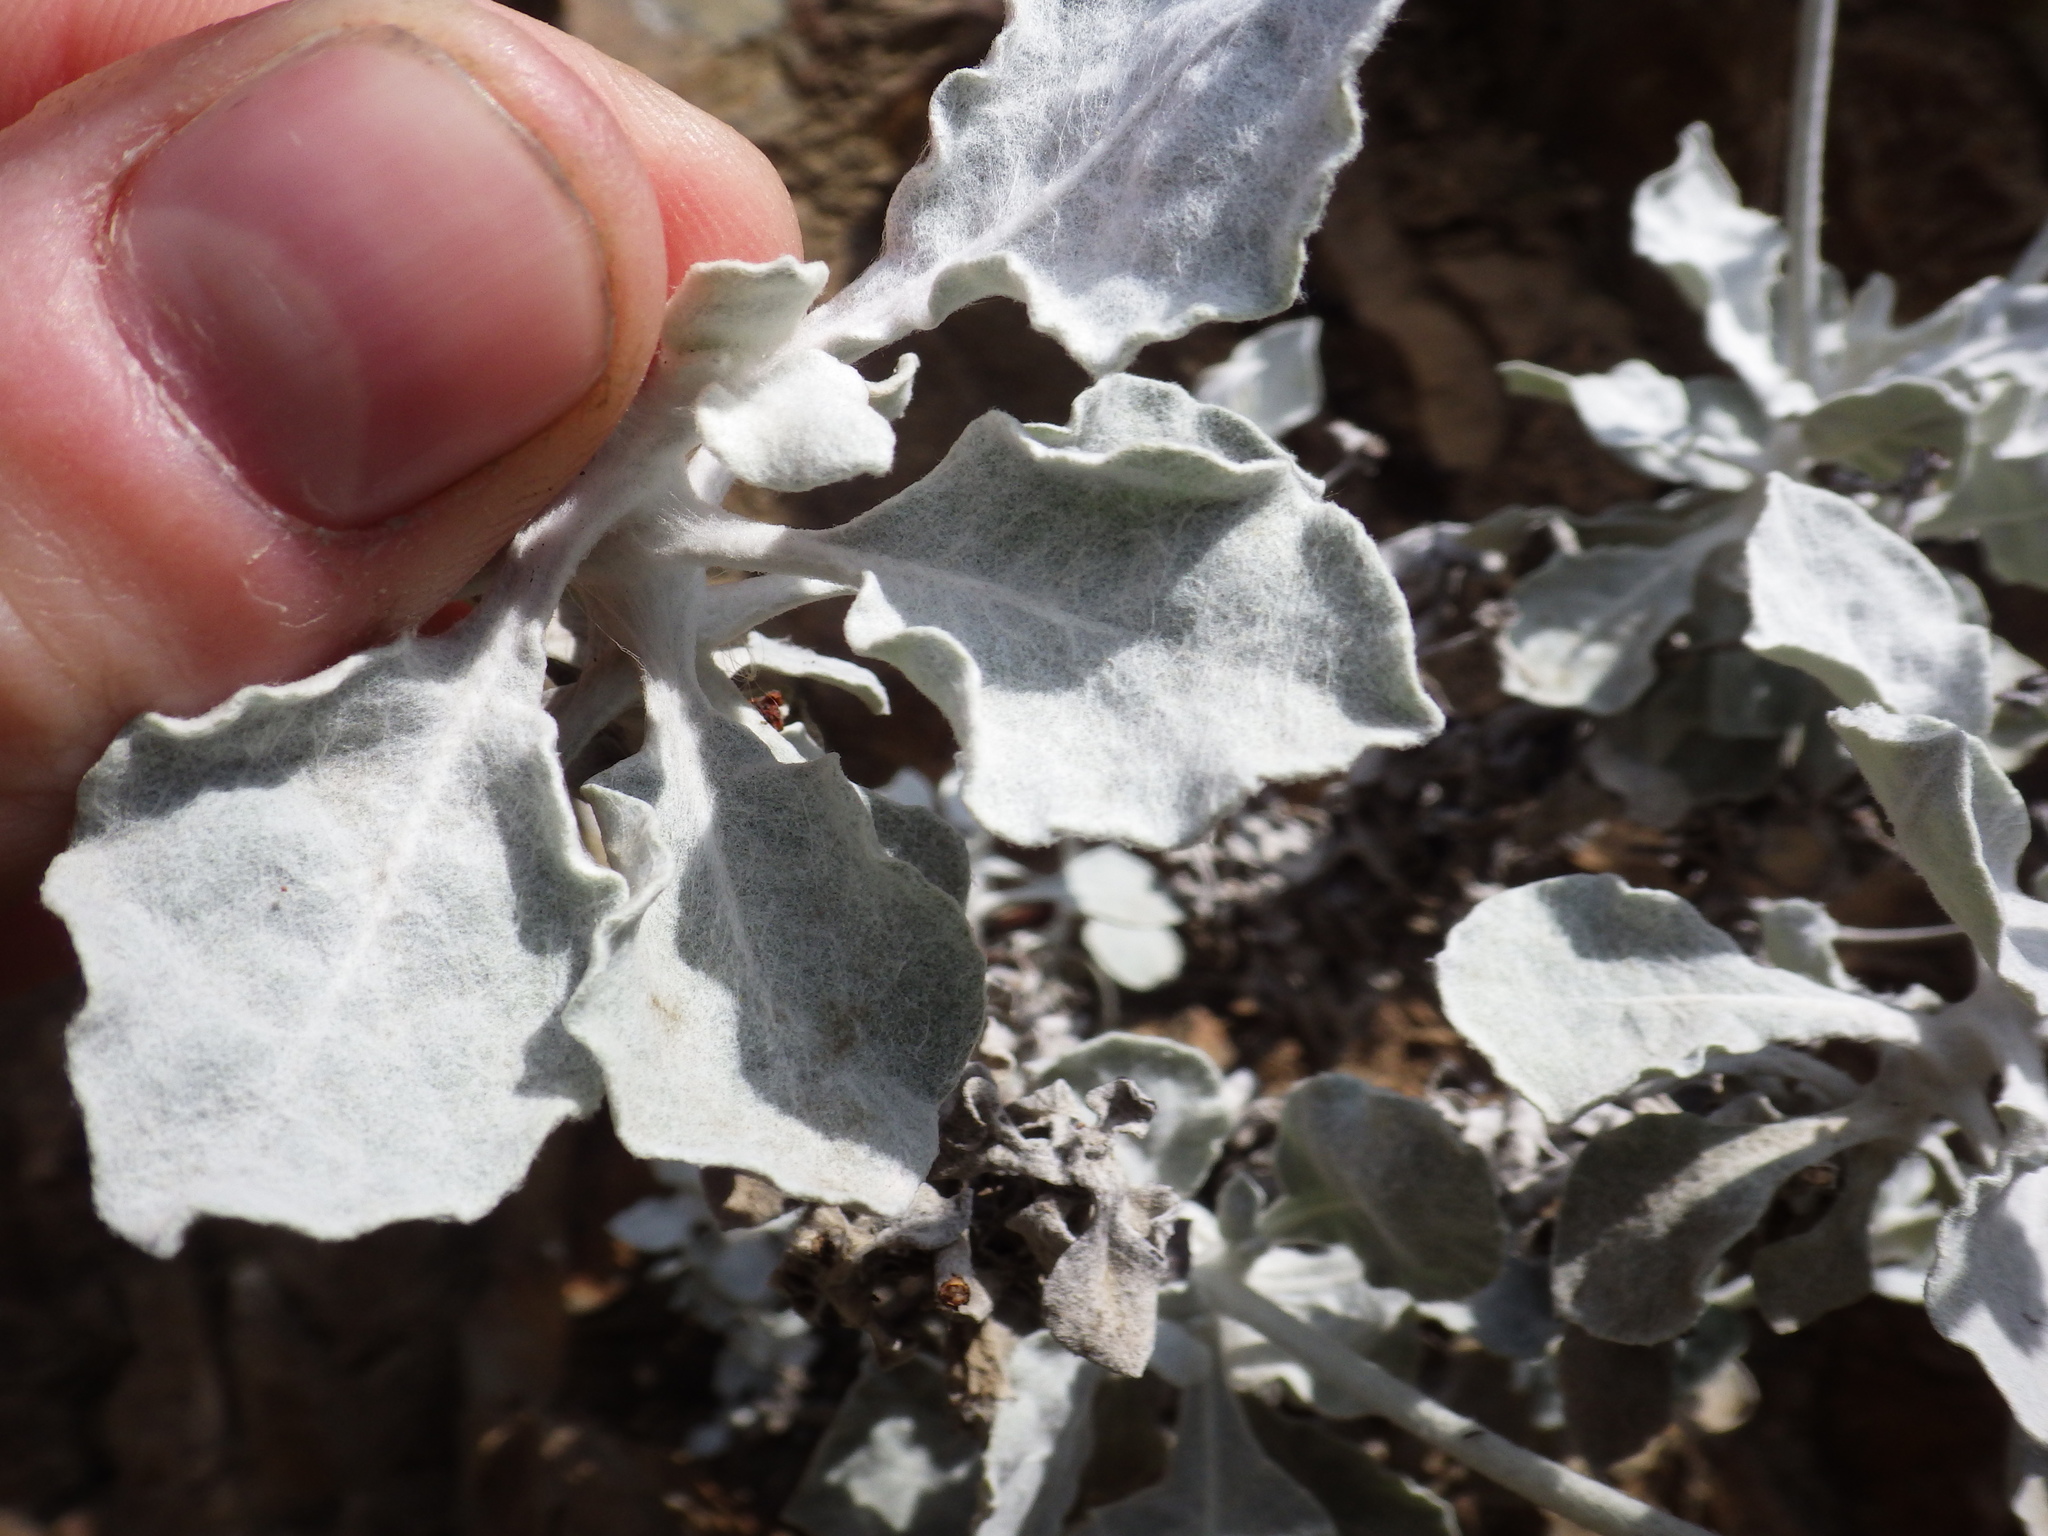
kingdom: Plantae
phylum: Tracheophyta
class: Magnoliopsida
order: Caryophyllales
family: Polygonaceae
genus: Eriogonum
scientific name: Eriogonum crocatum
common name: Saffron wild buckwheat
